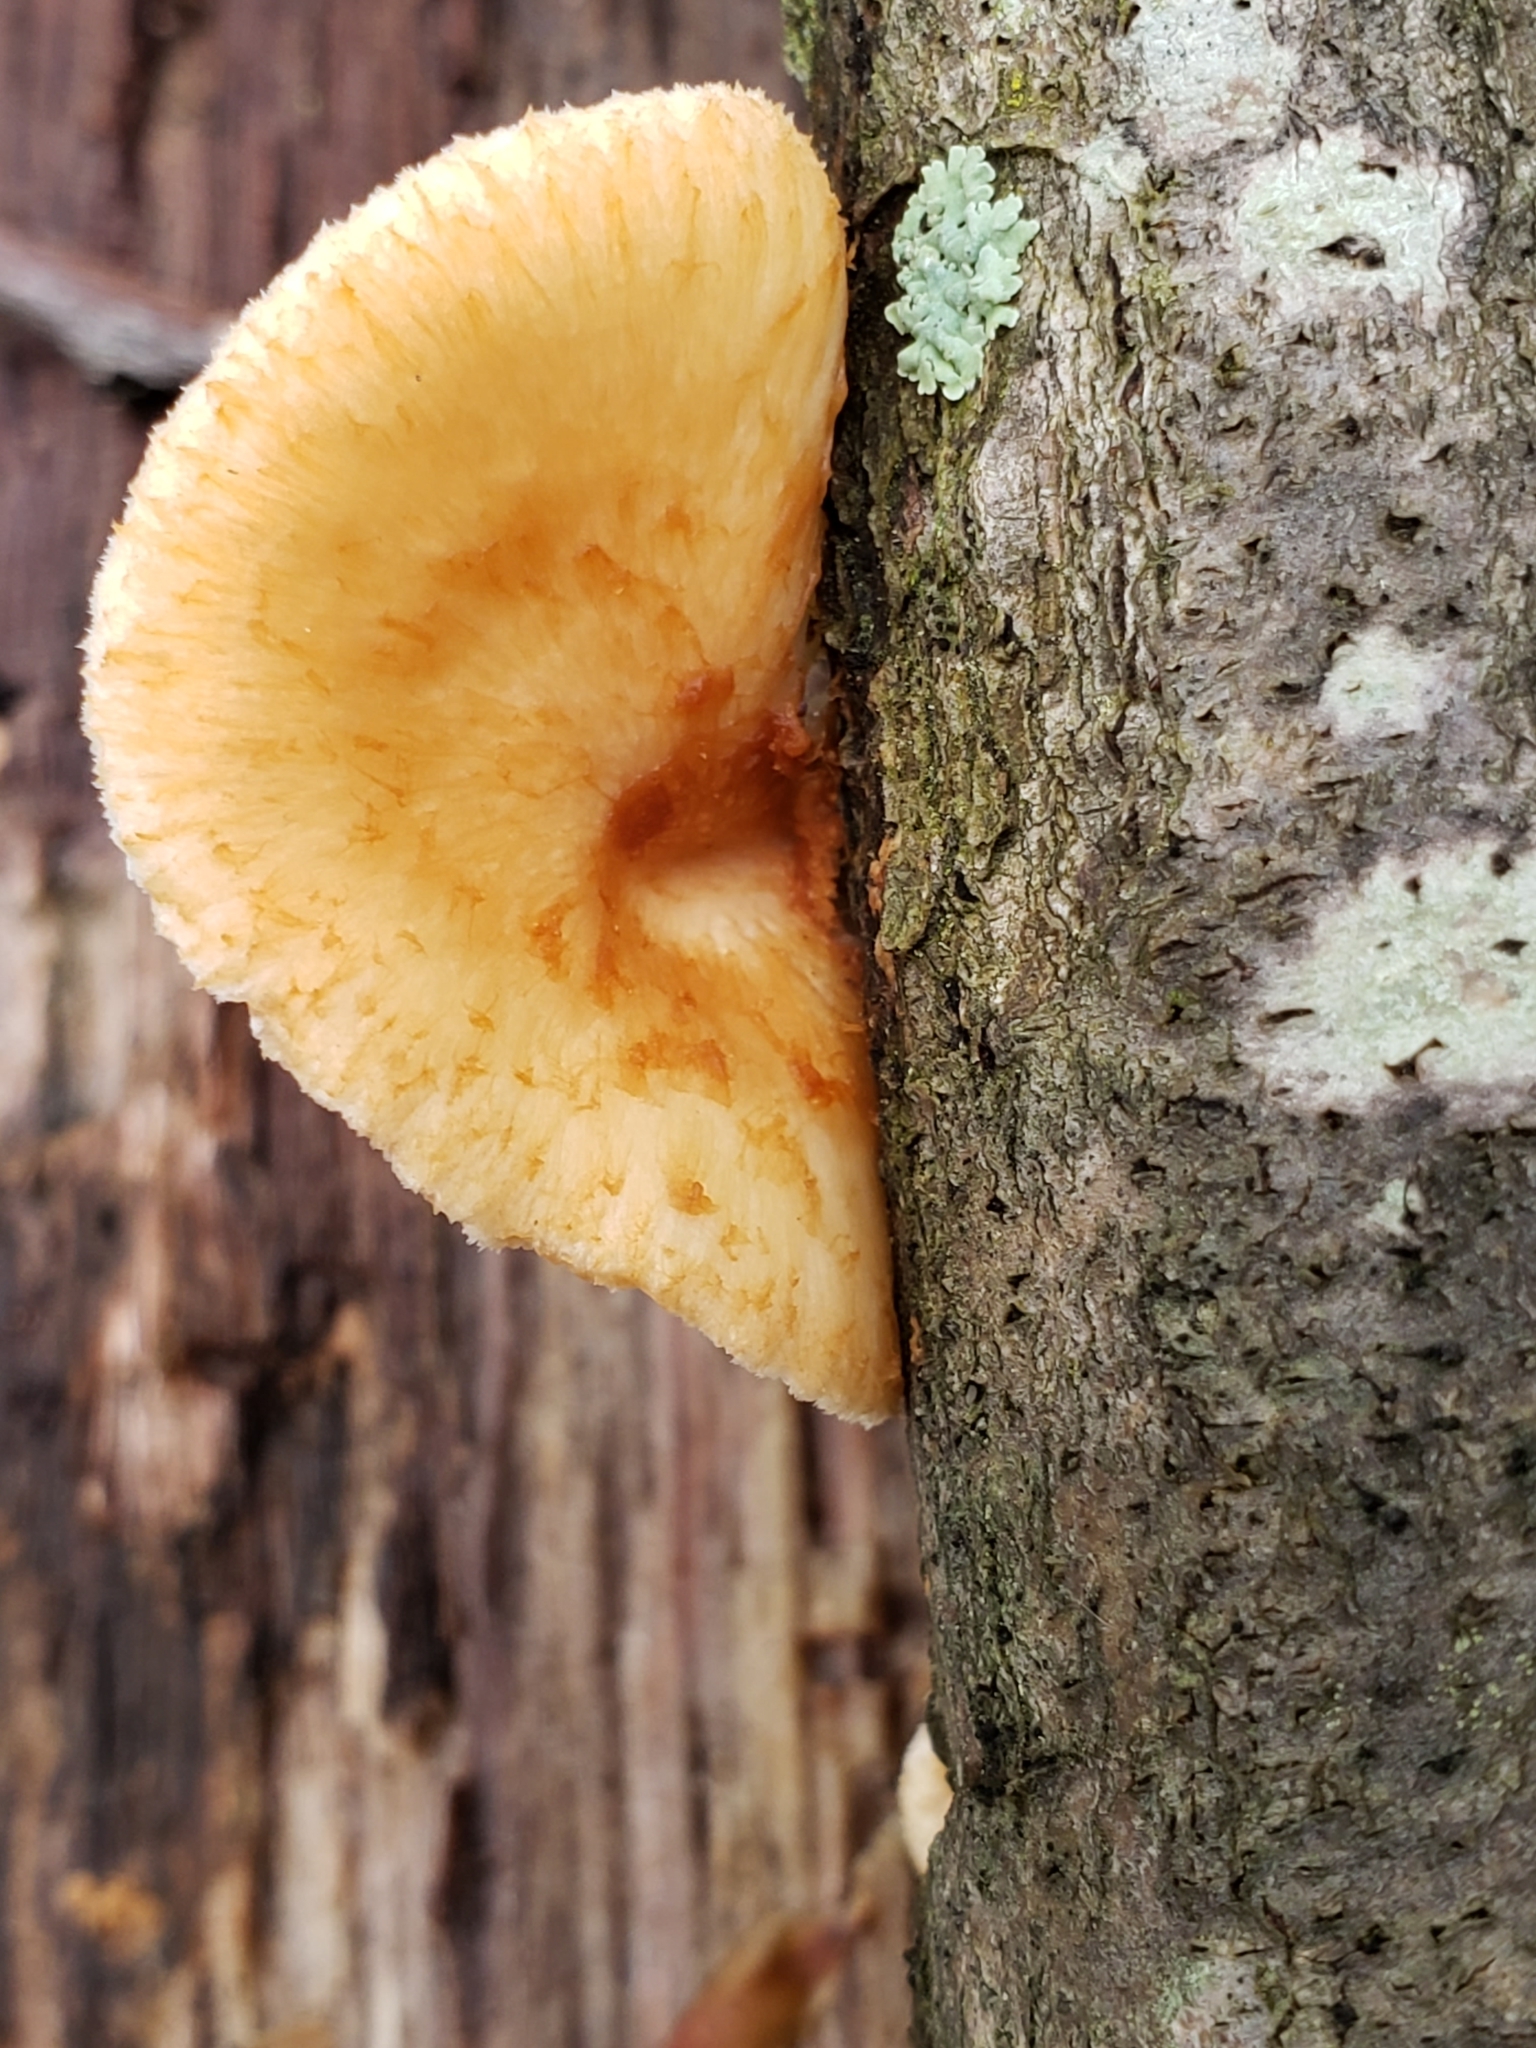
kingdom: Fungi
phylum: Basidiomycota
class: Agaricomycetes
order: Polyporales
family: Polyporaceae
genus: Neofavolus
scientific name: Neofavolus alveolaris
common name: Hexagonal-pored polypore
